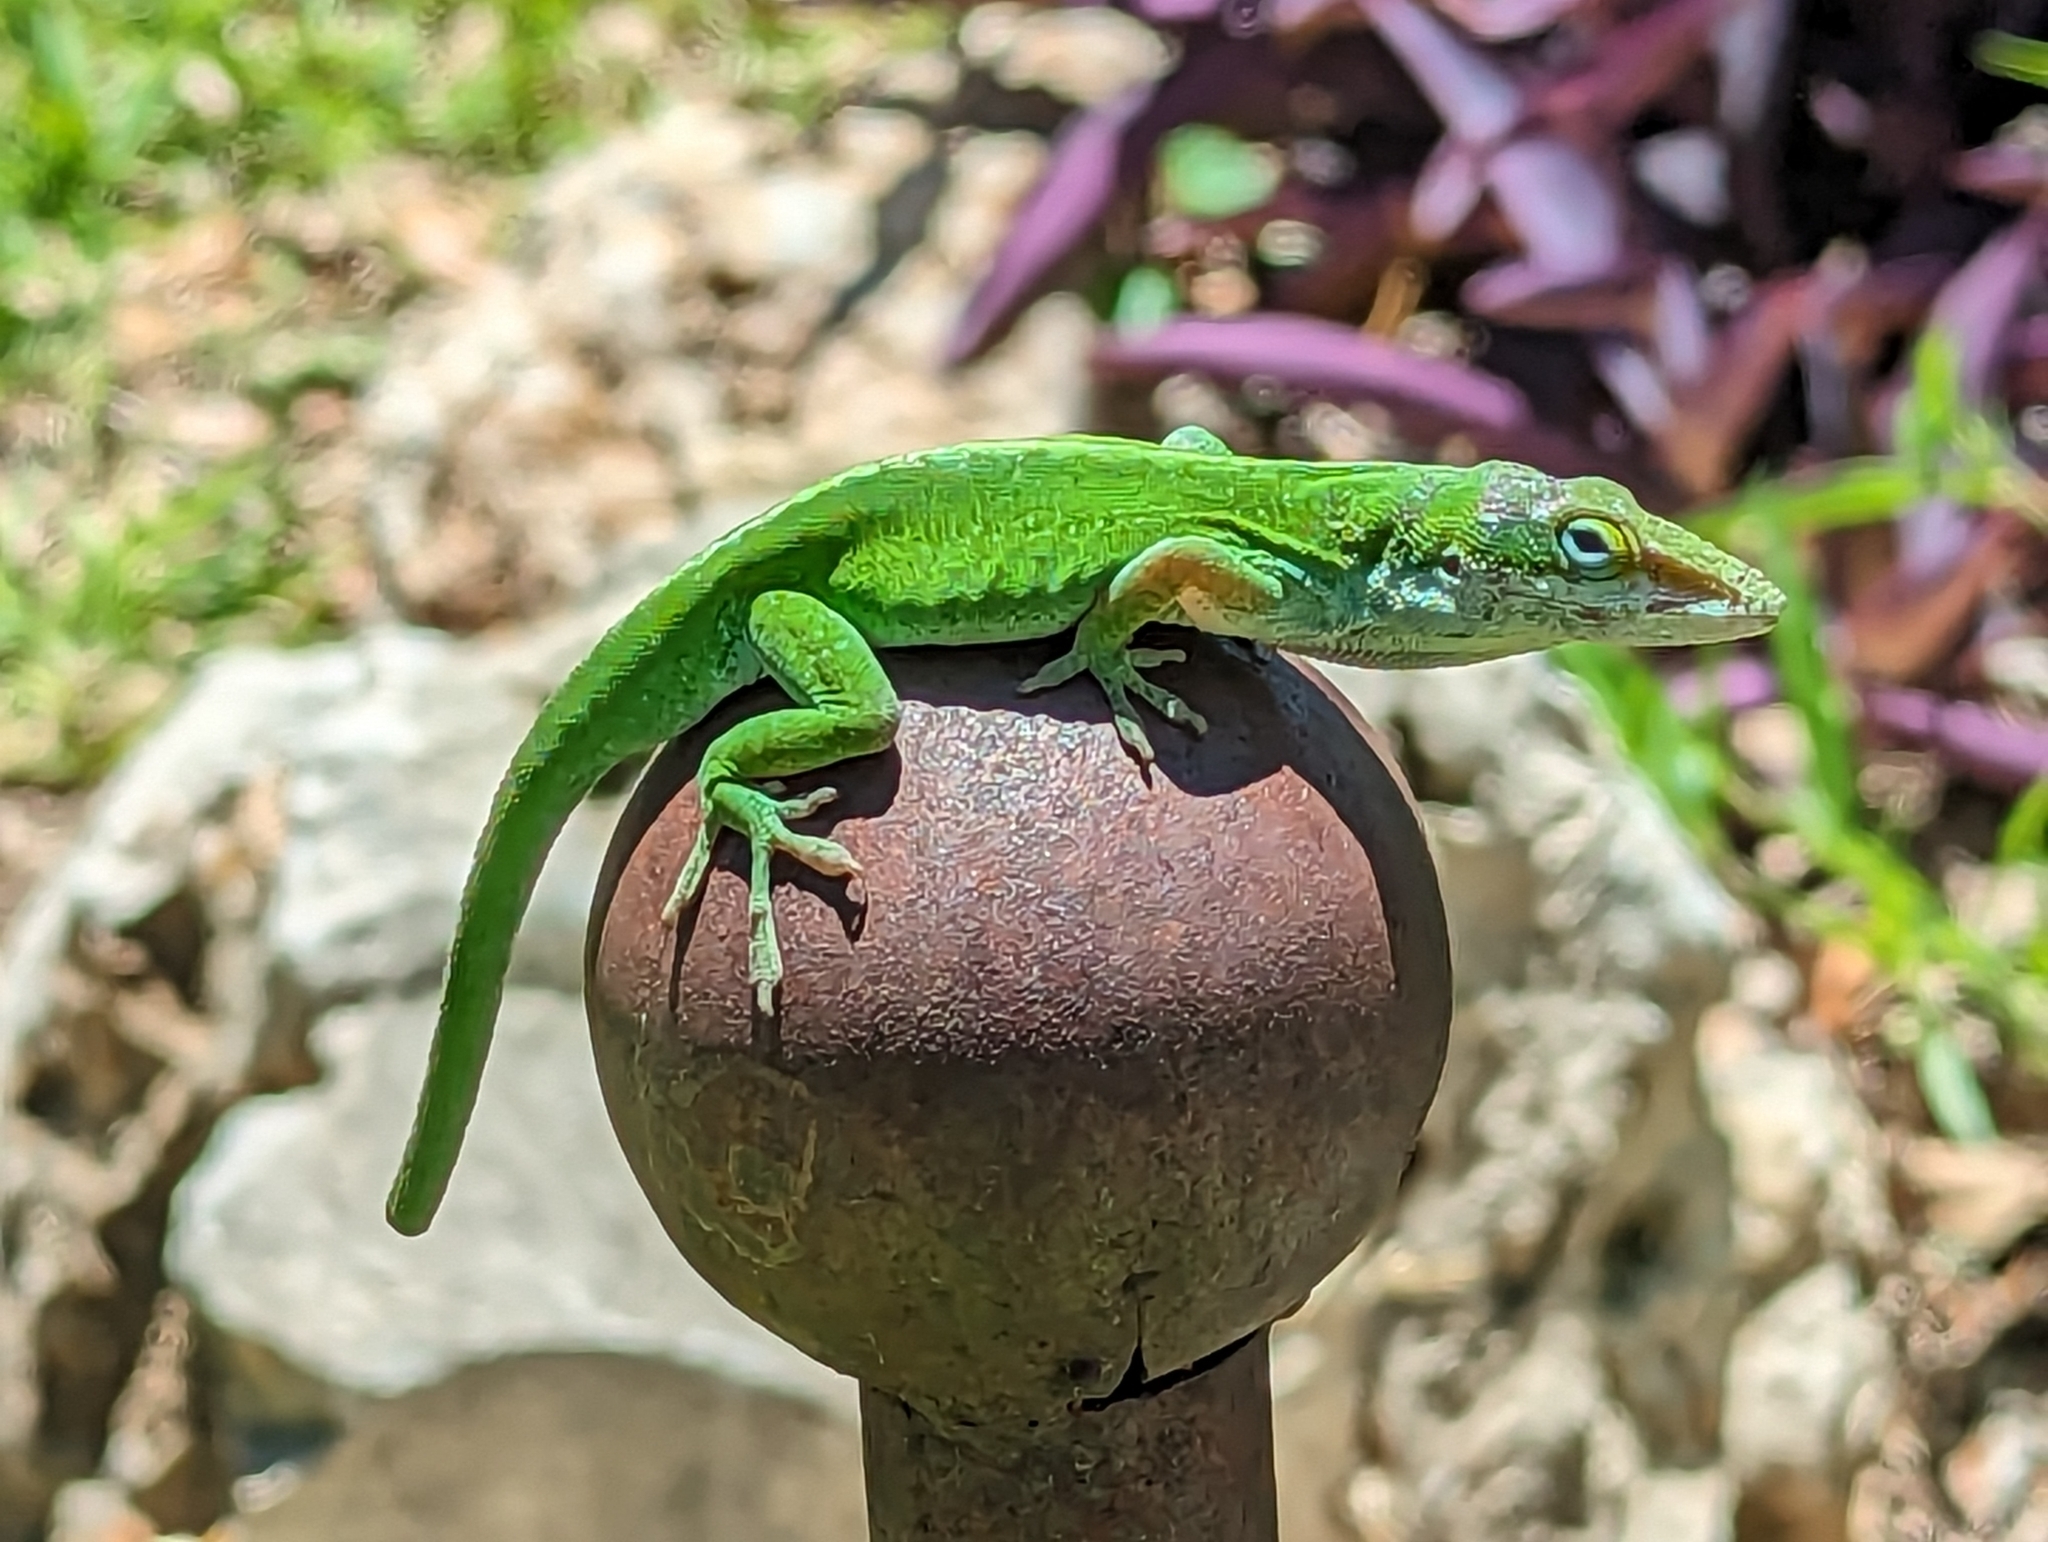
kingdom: Animalia
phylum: Chordata
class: Squamata
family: Dactyloidae
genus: Anolis
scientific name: Anolis carolinensis
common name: Green anole
